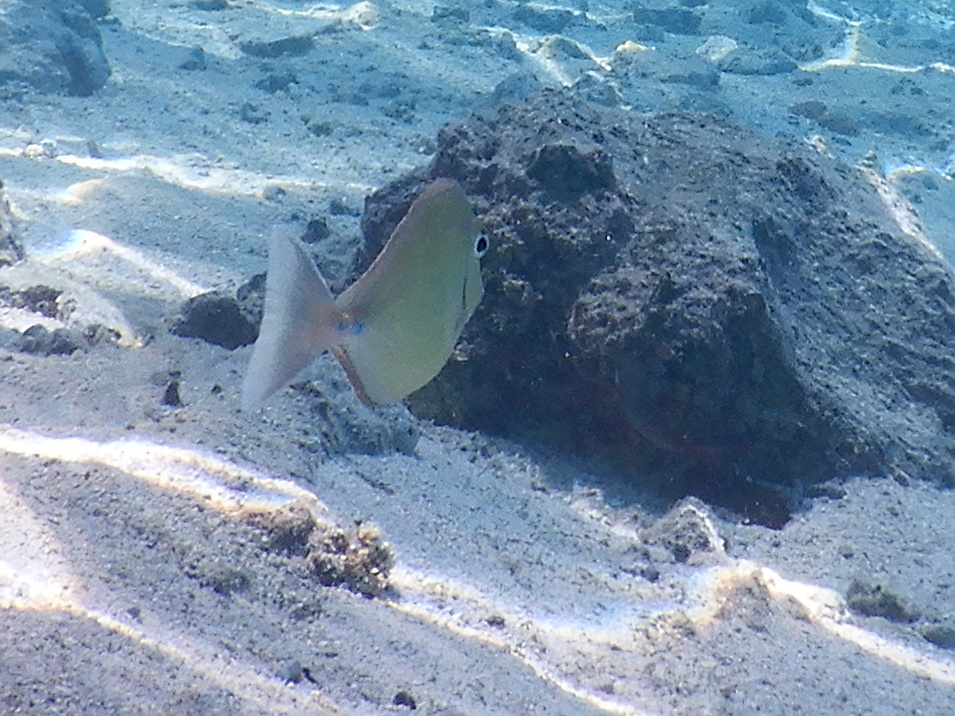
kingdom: Animalia
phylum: Chordata
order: Perciformes
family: Acanthuridae
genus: Naso
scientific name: Naso unicornis
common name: Bluespine unicornfish
